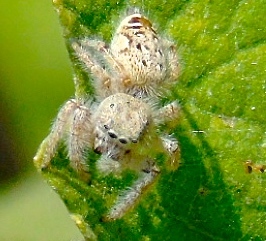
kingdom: Animalia
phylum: Arthropoda
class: Arachnida
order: Araneae
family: Salticidae
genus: Paraphidippus
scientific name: Paraphidippus fartilis
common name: Jumping spiders
